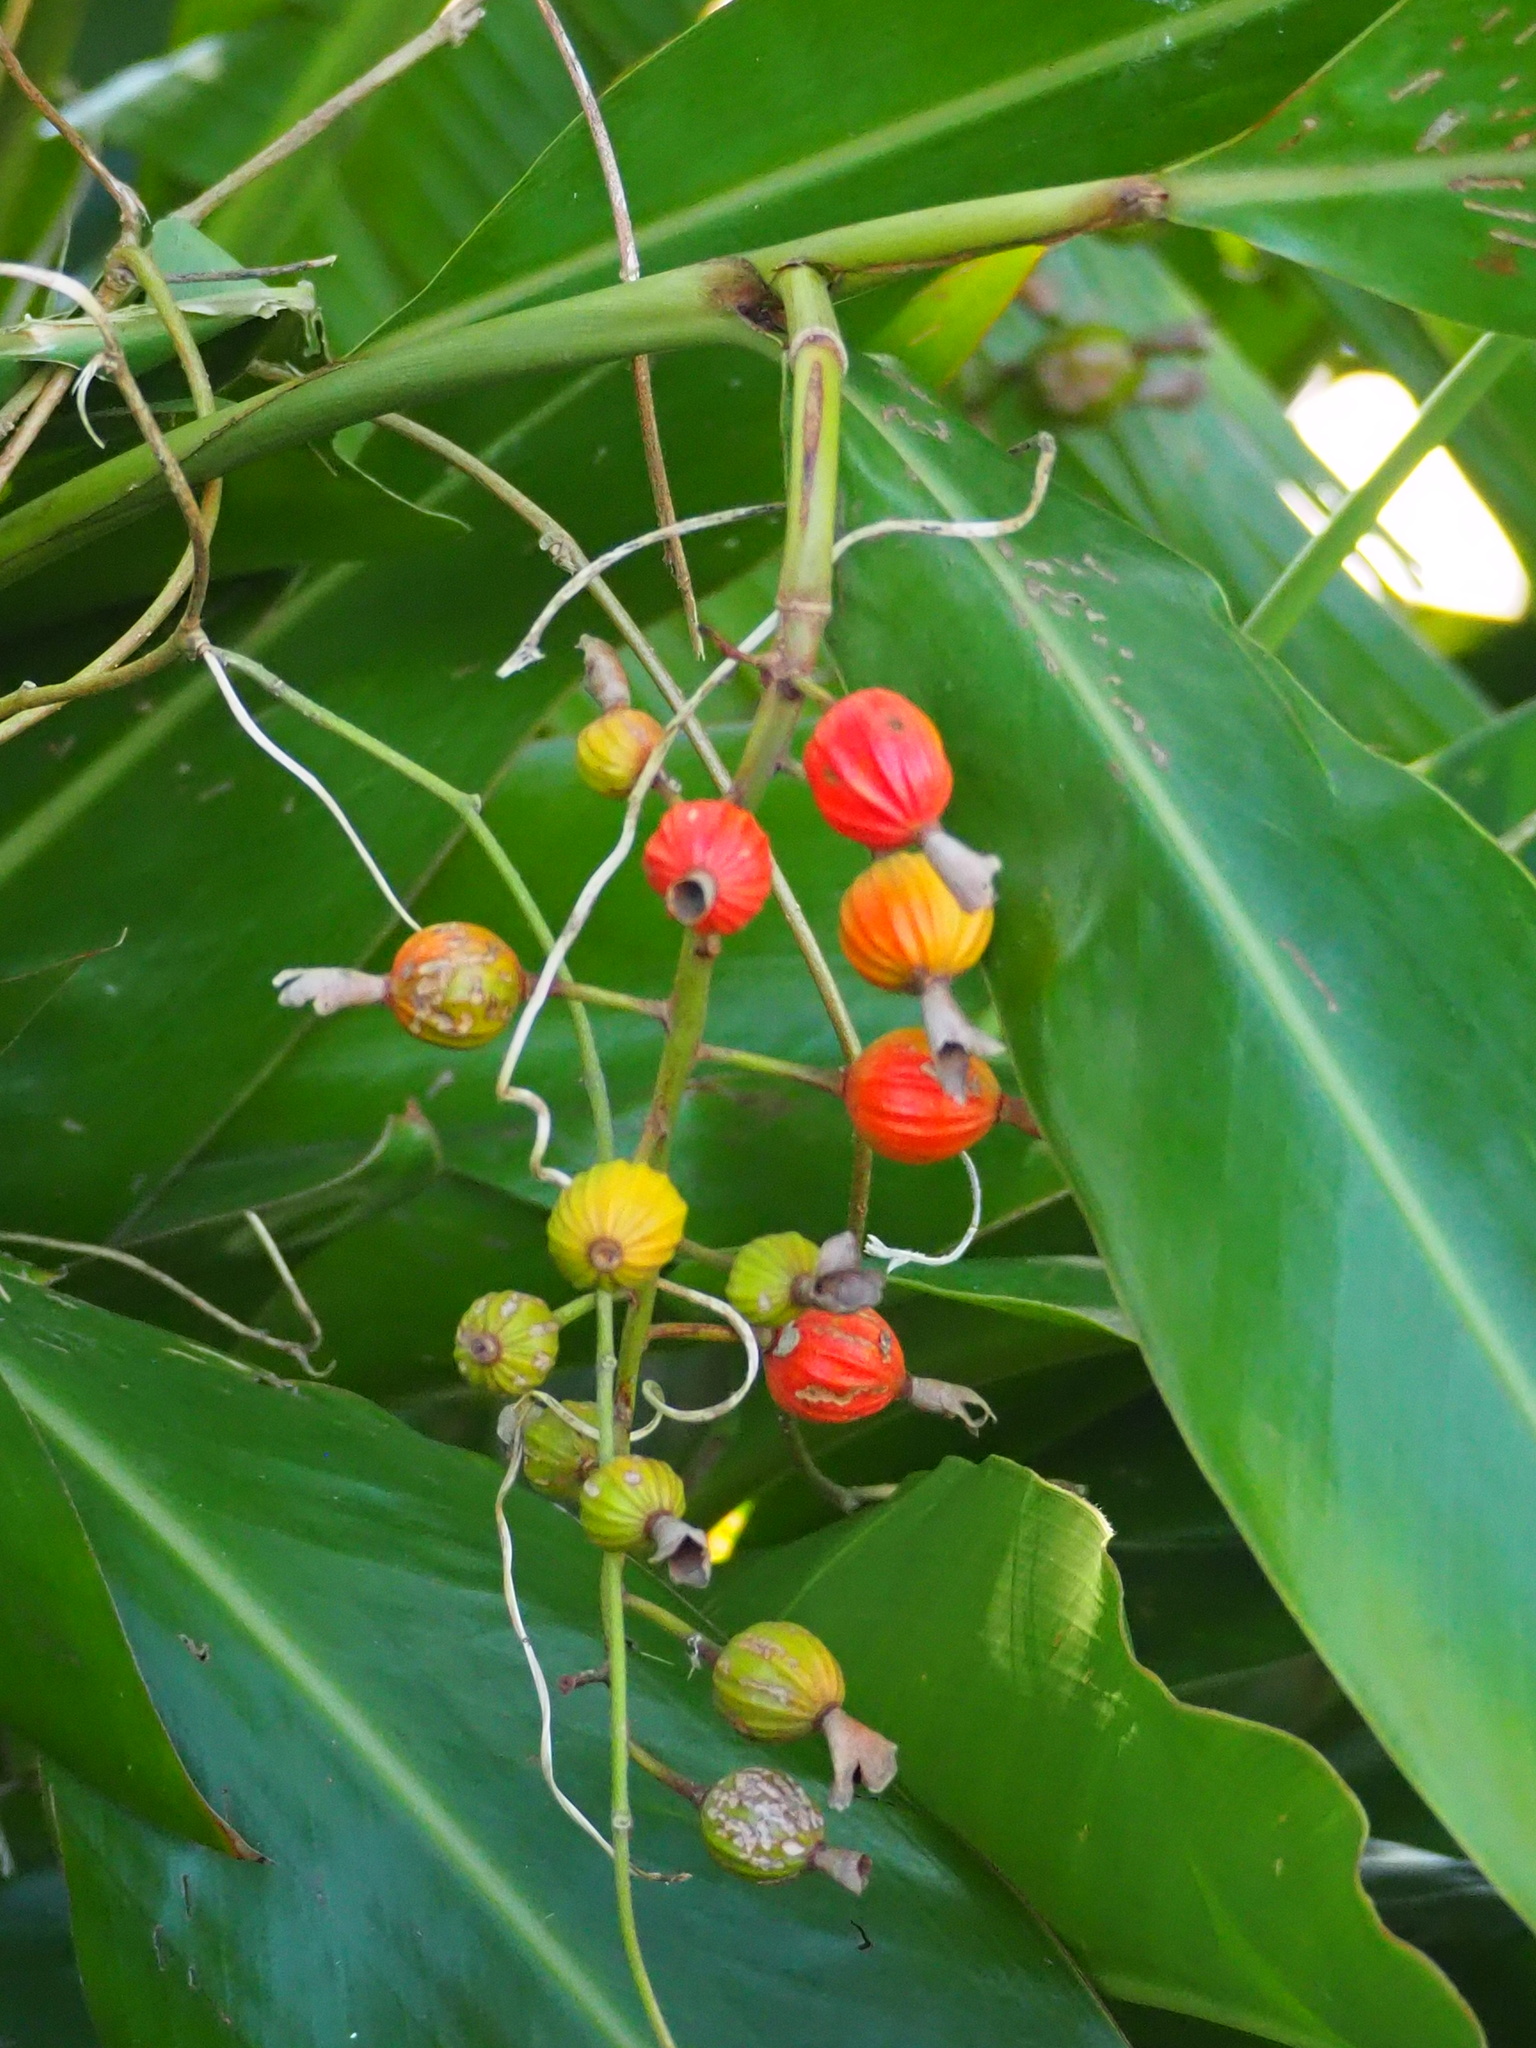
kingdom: Plantae
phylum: Tracheophyta
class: Liliopsida
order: Zingiberales
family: Zingiberaceae
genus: Alpinia
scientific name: Alpinia zerumbet
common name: Shellplant
